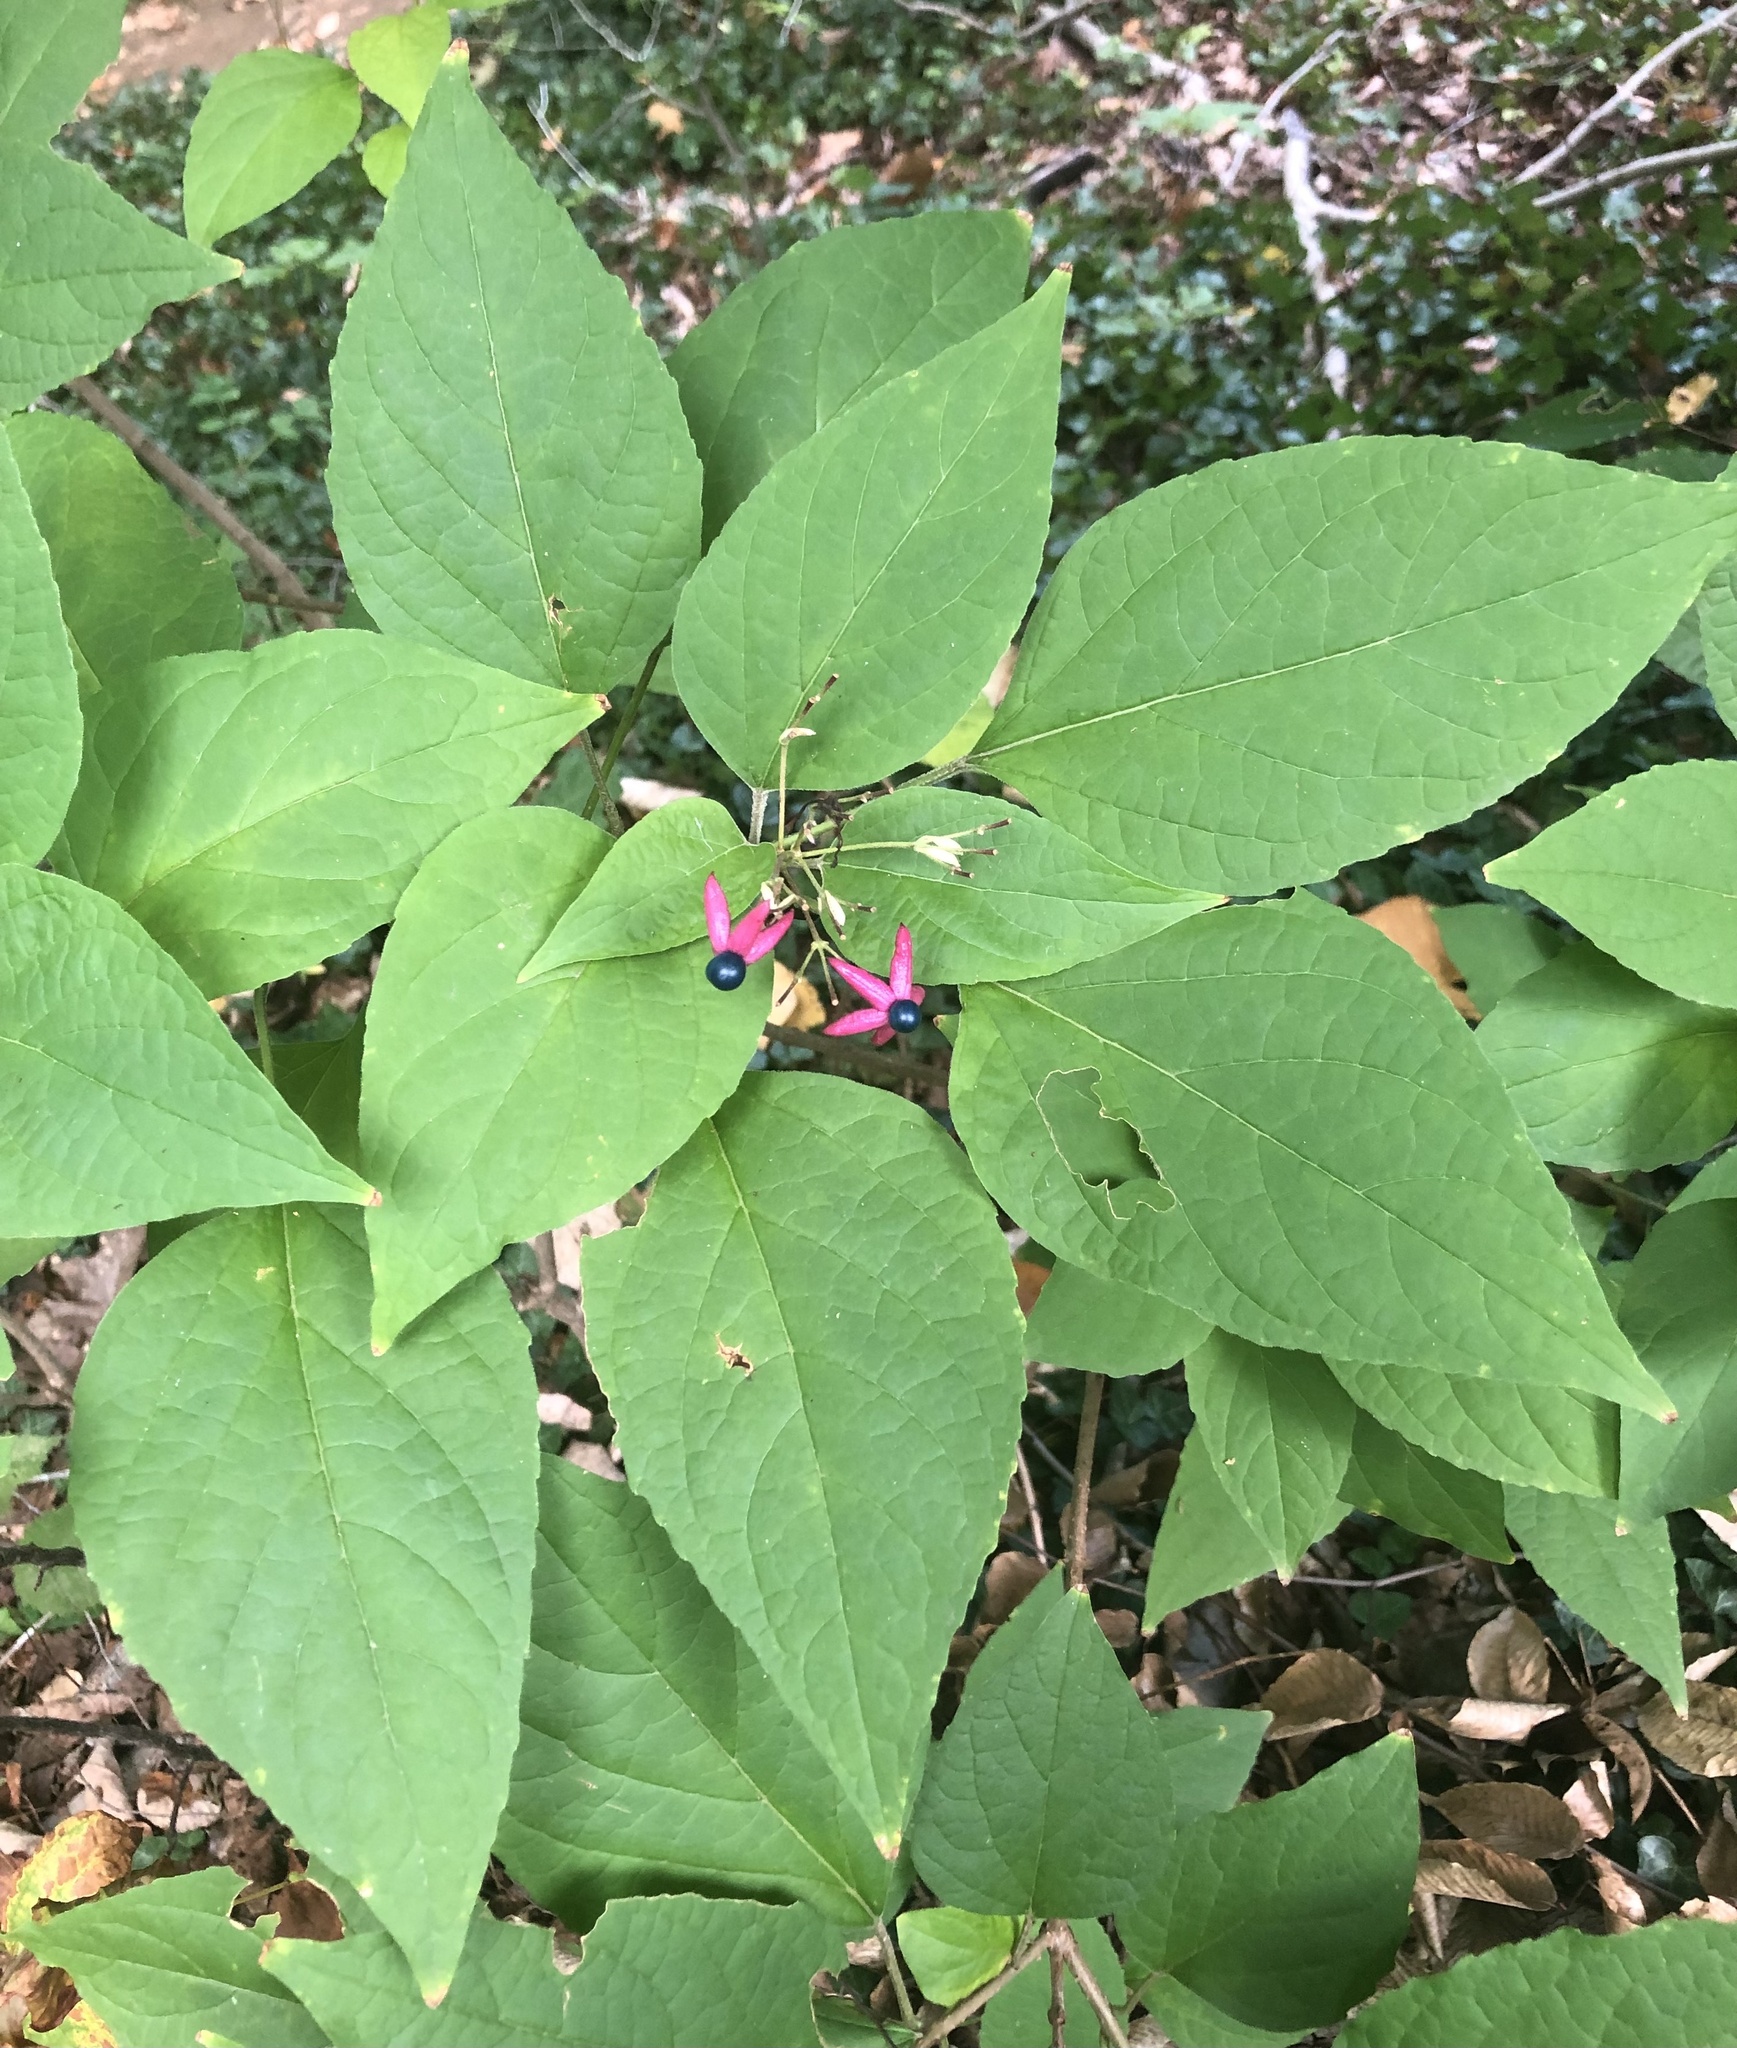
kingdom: Plantae
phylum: Tracheophyta
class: Magnoliopsida
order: Lamiales
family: Lamiaceae
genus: Clerodendrum
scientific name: Clerodendrum trichotomum
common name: Harlequin glorybower
